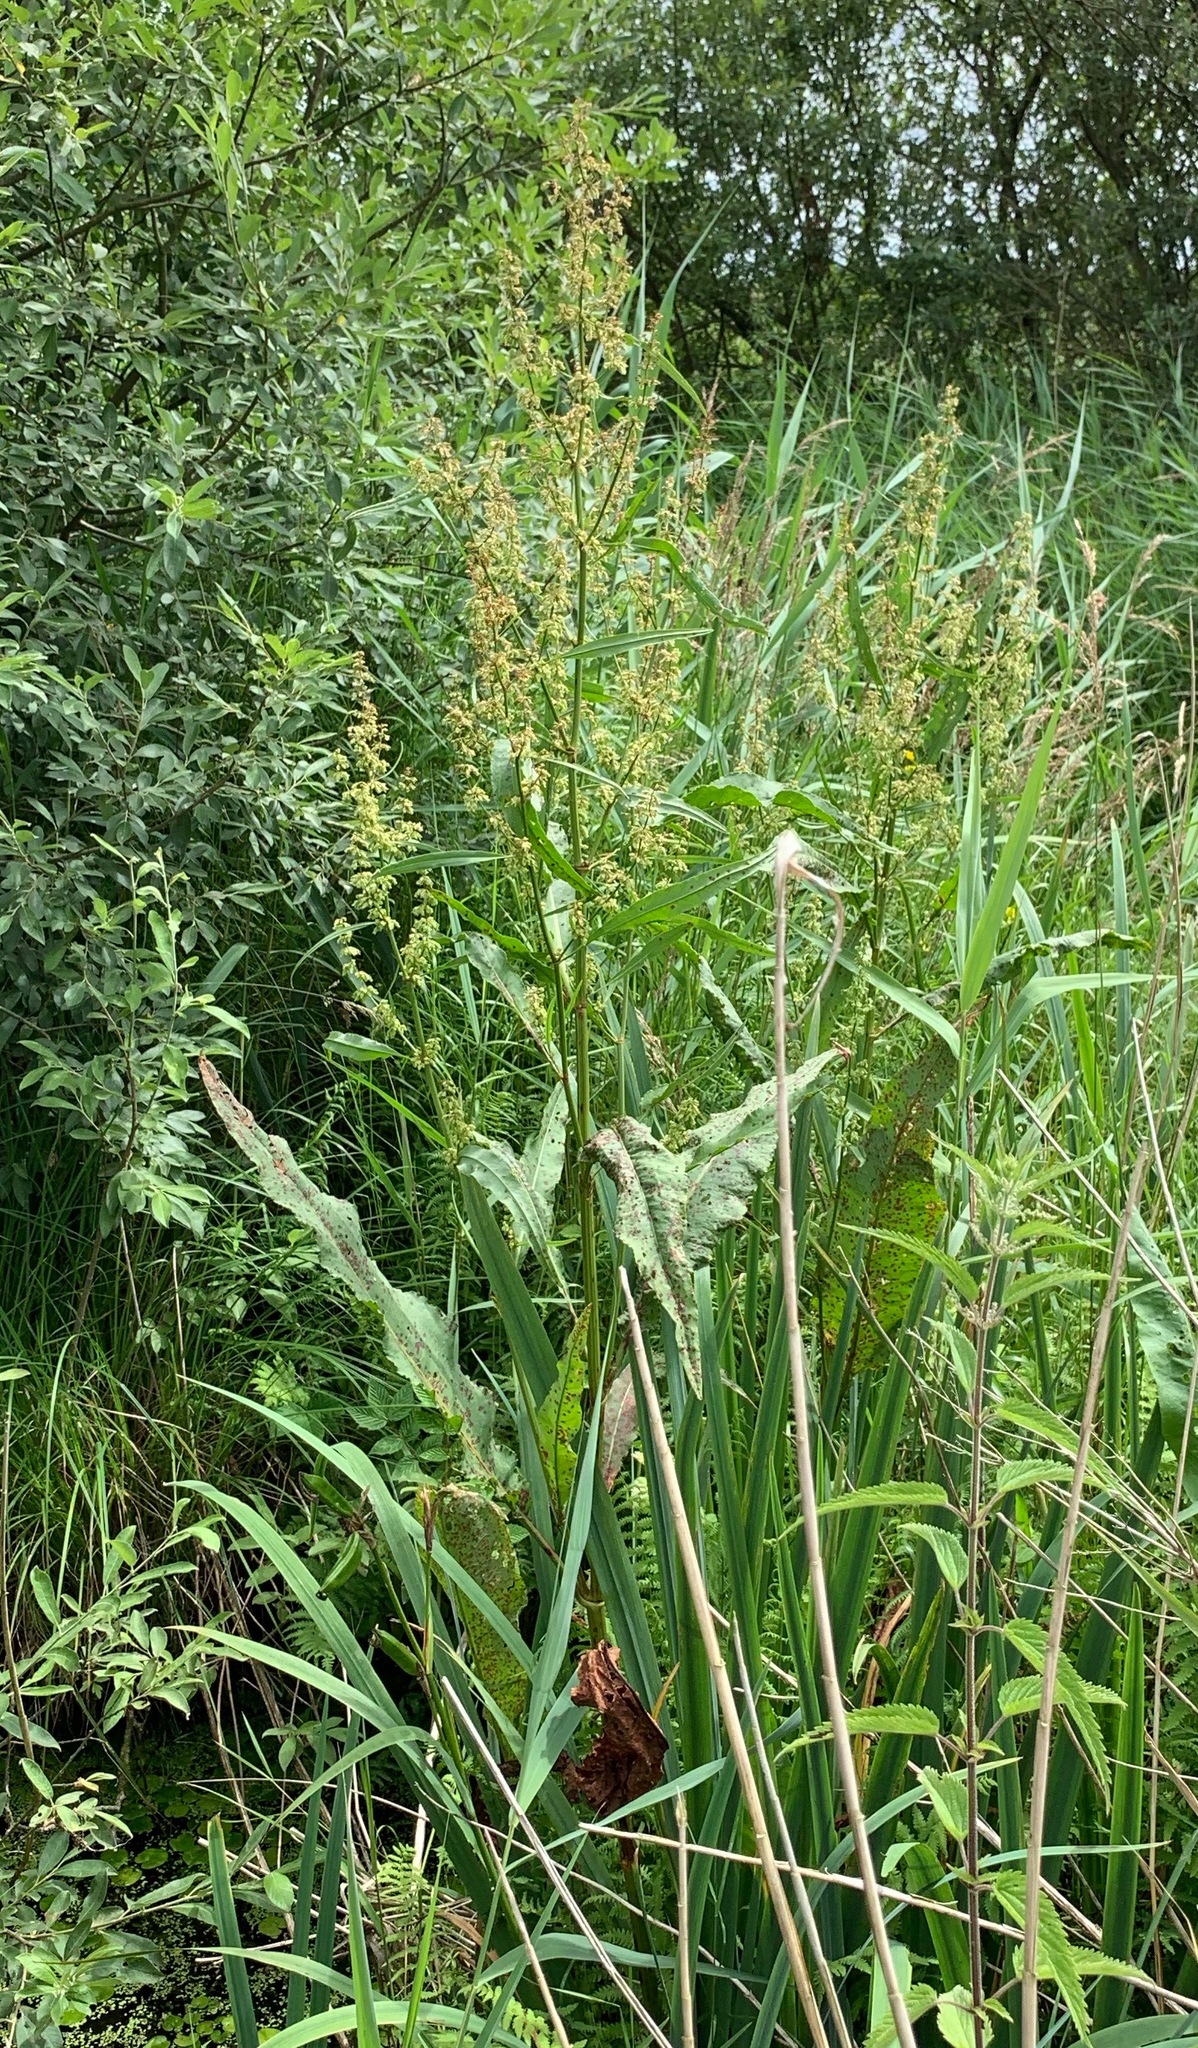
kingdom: Plantae
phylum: Tracheophyta
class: Magnoliopsida
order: Caryophyllales
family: Polygonaceae
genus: Rumex
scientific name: Rumex hydrolapathum
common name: Water dock
